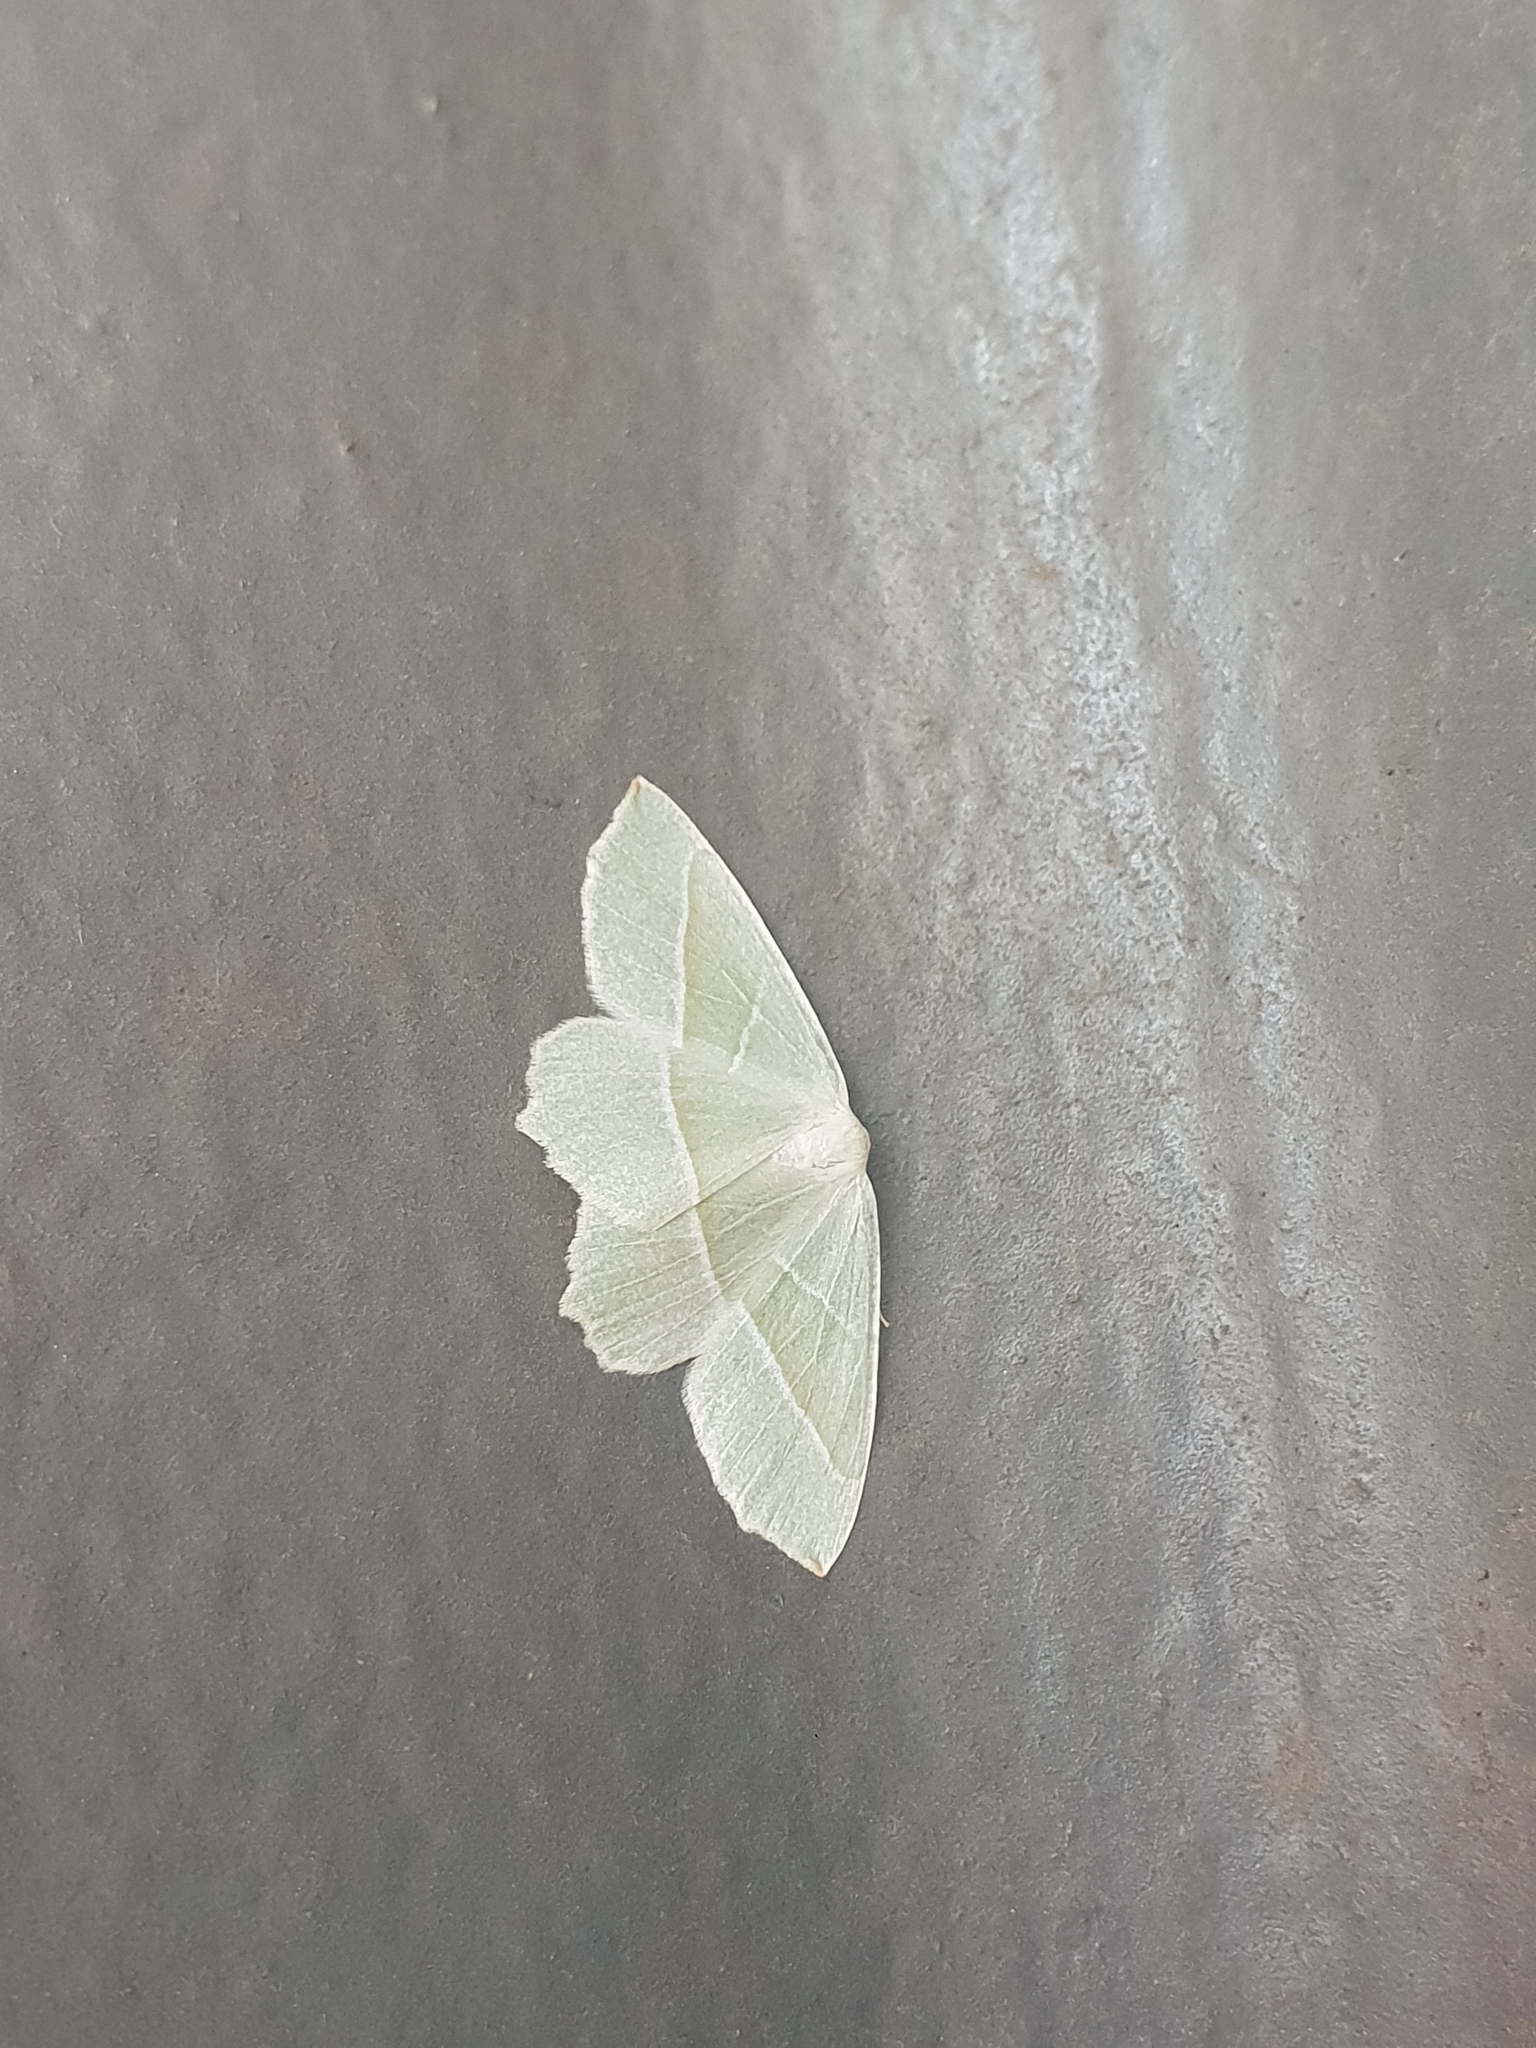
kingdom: Animalia
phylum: Arthropoda
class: Insecta
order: Lepidoptera
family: Geometridae
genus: Campaea
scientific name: Campaea margaritaria
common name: Light emerald
